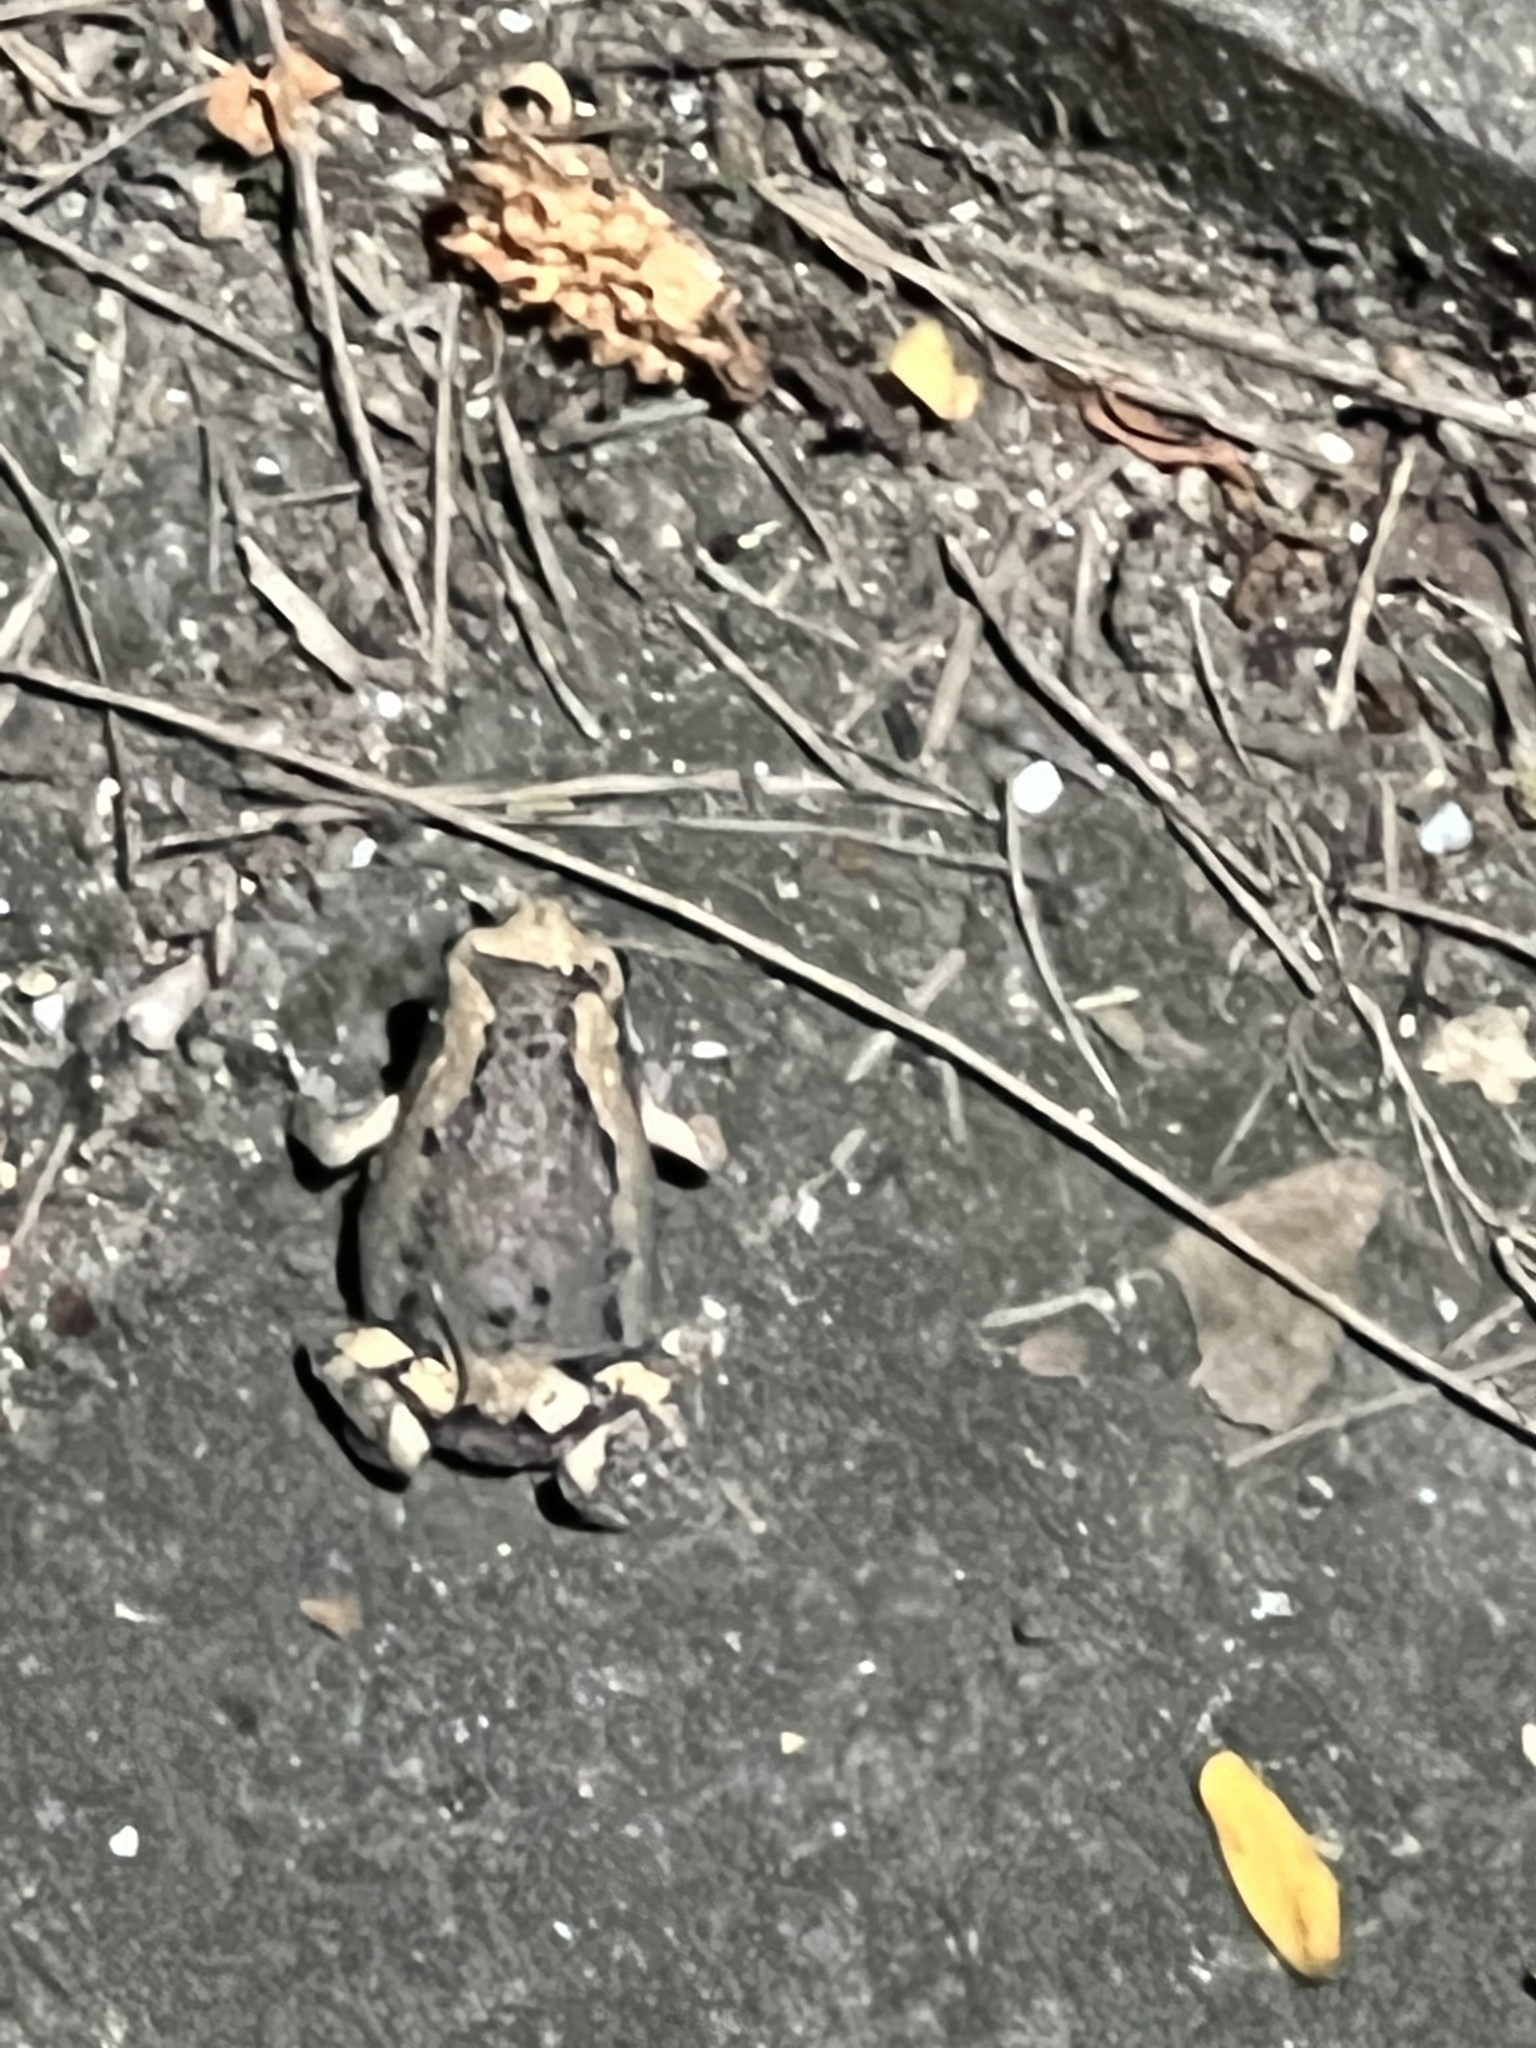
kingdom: Animalia
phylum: Chordata
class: Amphibia
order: Anura
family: Microhylidae
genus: Kaloula
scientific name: Kaloula pulchra
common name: Common,banded bullfrog
